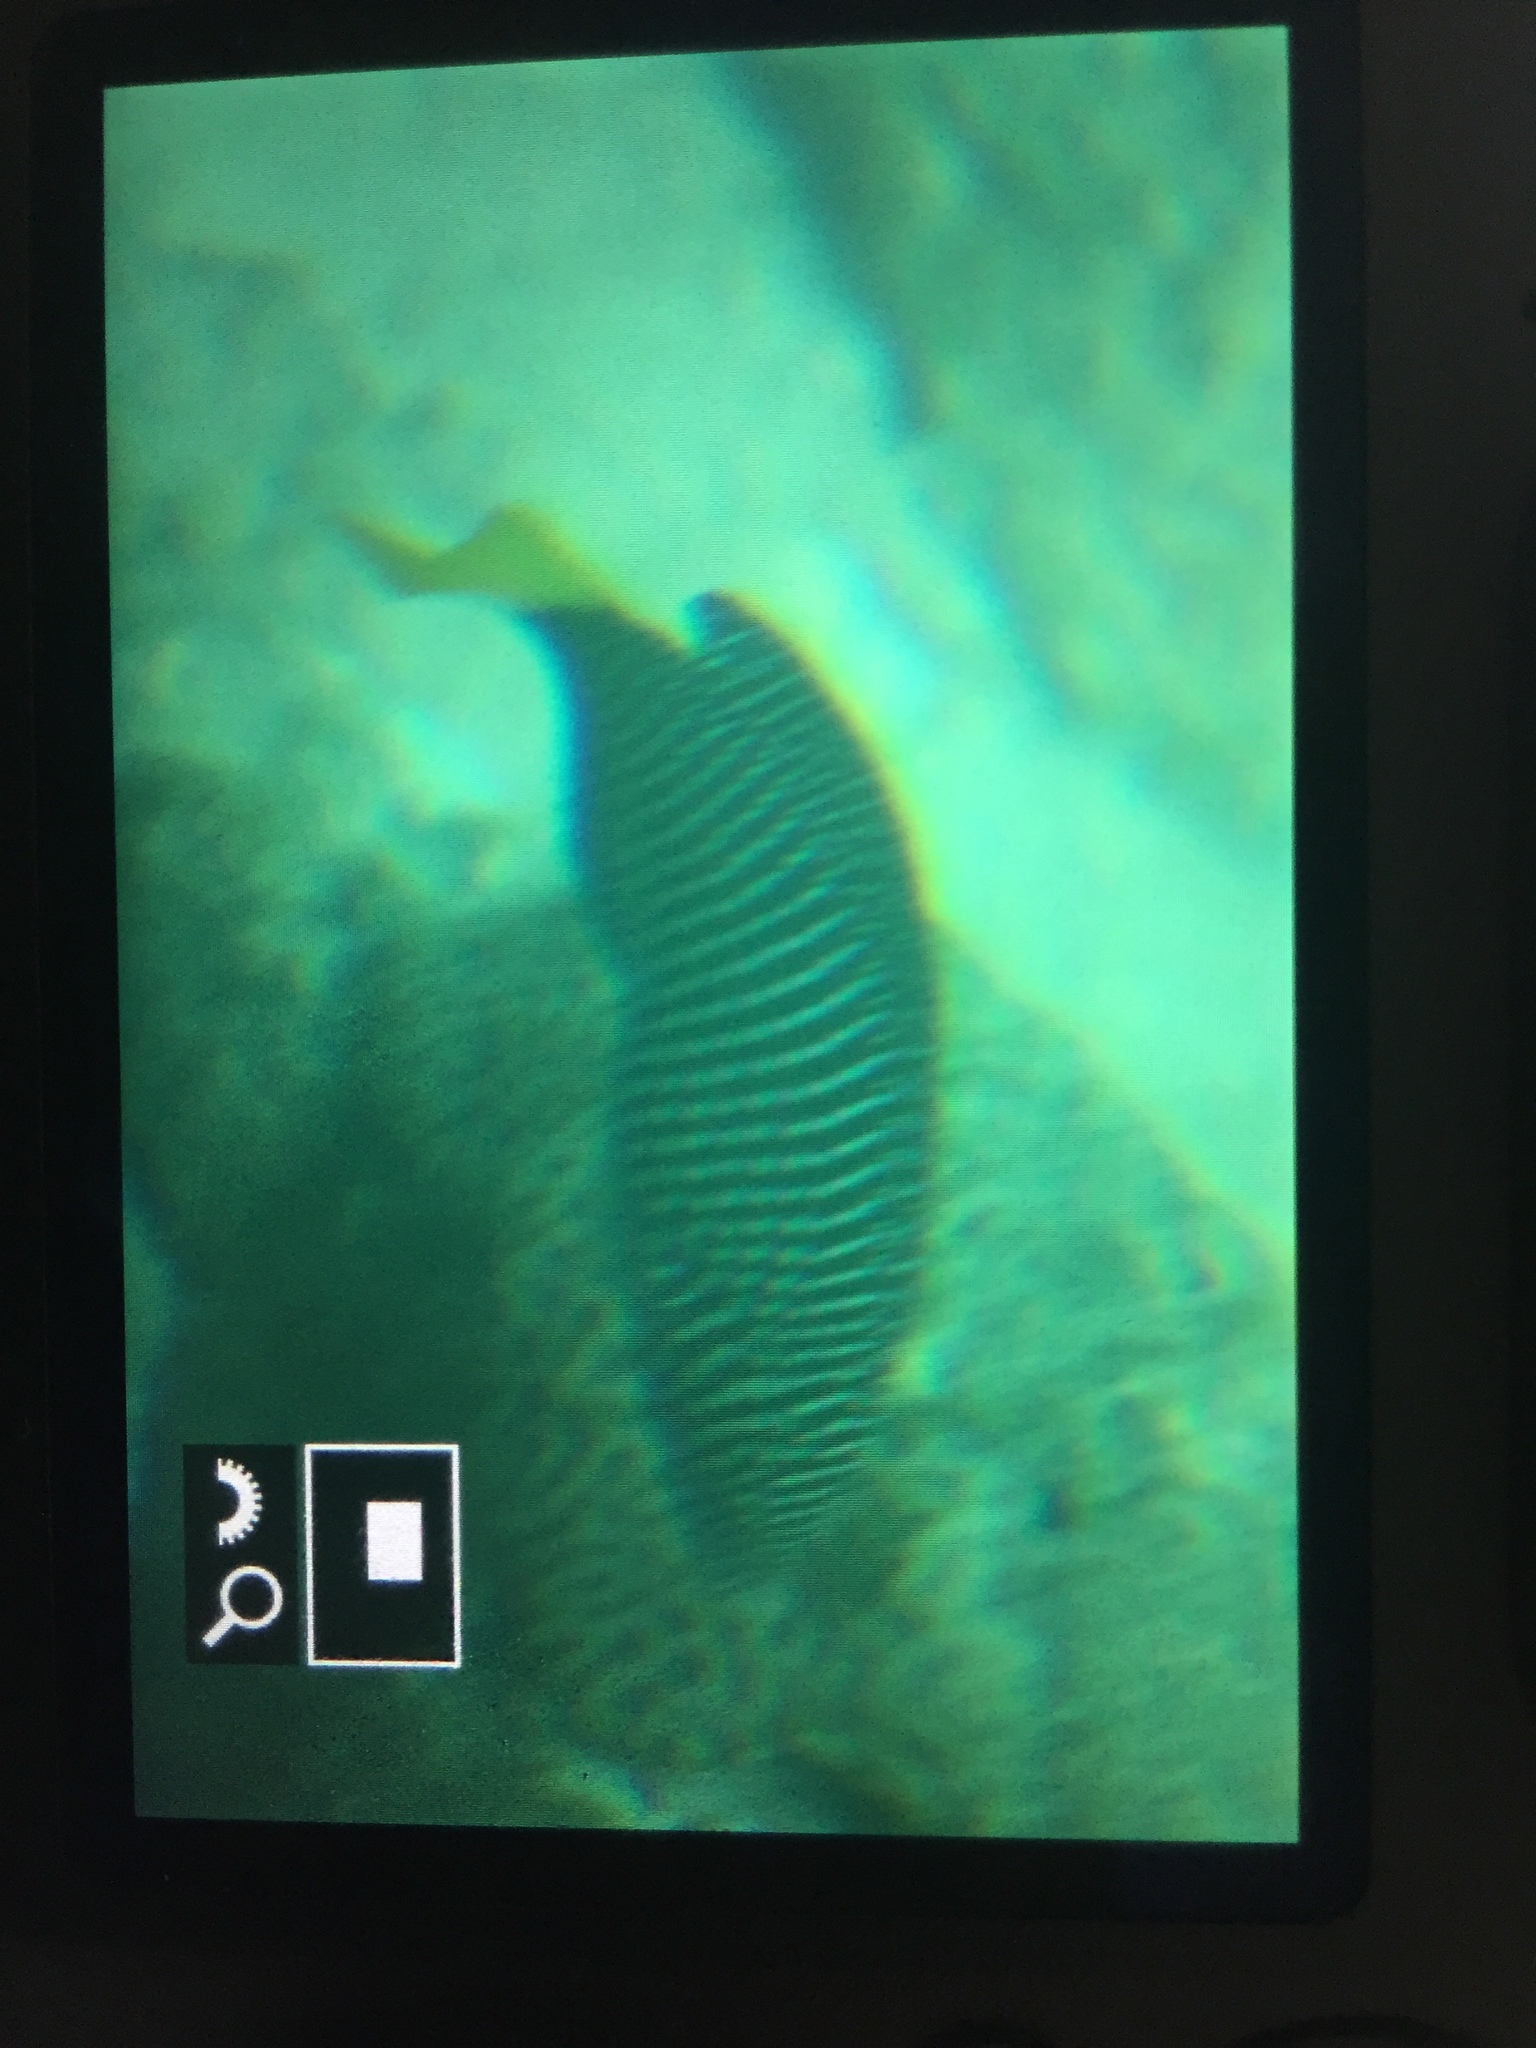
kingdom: Animalia
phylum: Chordata
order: Perciformes
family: Labridae
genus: Anampses
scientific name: Anampses meleagrides
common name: Yellowtail wrasse
